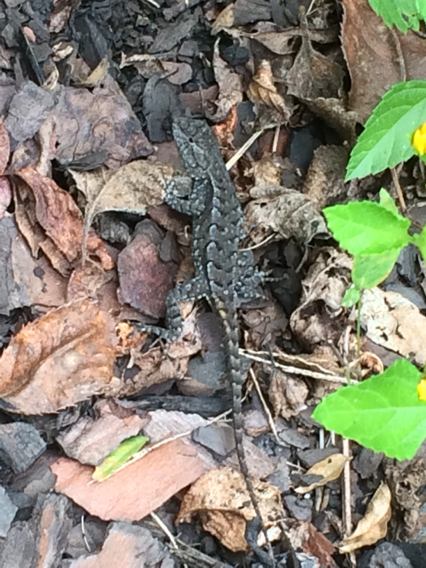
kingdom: Animalia
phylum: Chordata
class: Squamata
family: Phrynosomatidae
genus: Sceloporus
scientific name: Sceloporus consobrinus
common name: Southern prairie lizard
